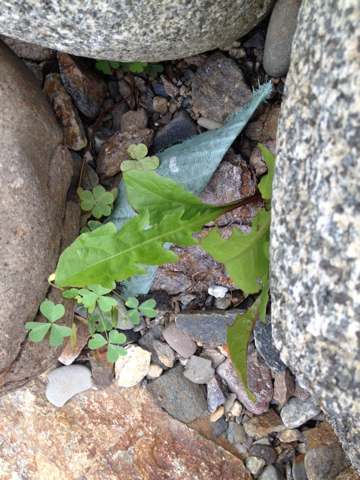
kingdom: Plantae
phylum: Tracheophyta
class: Magnoliopsida
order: Asterales
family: Asteraceae
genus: Taraxacum
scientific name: Taraxacum officinale
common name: Common dandelion
